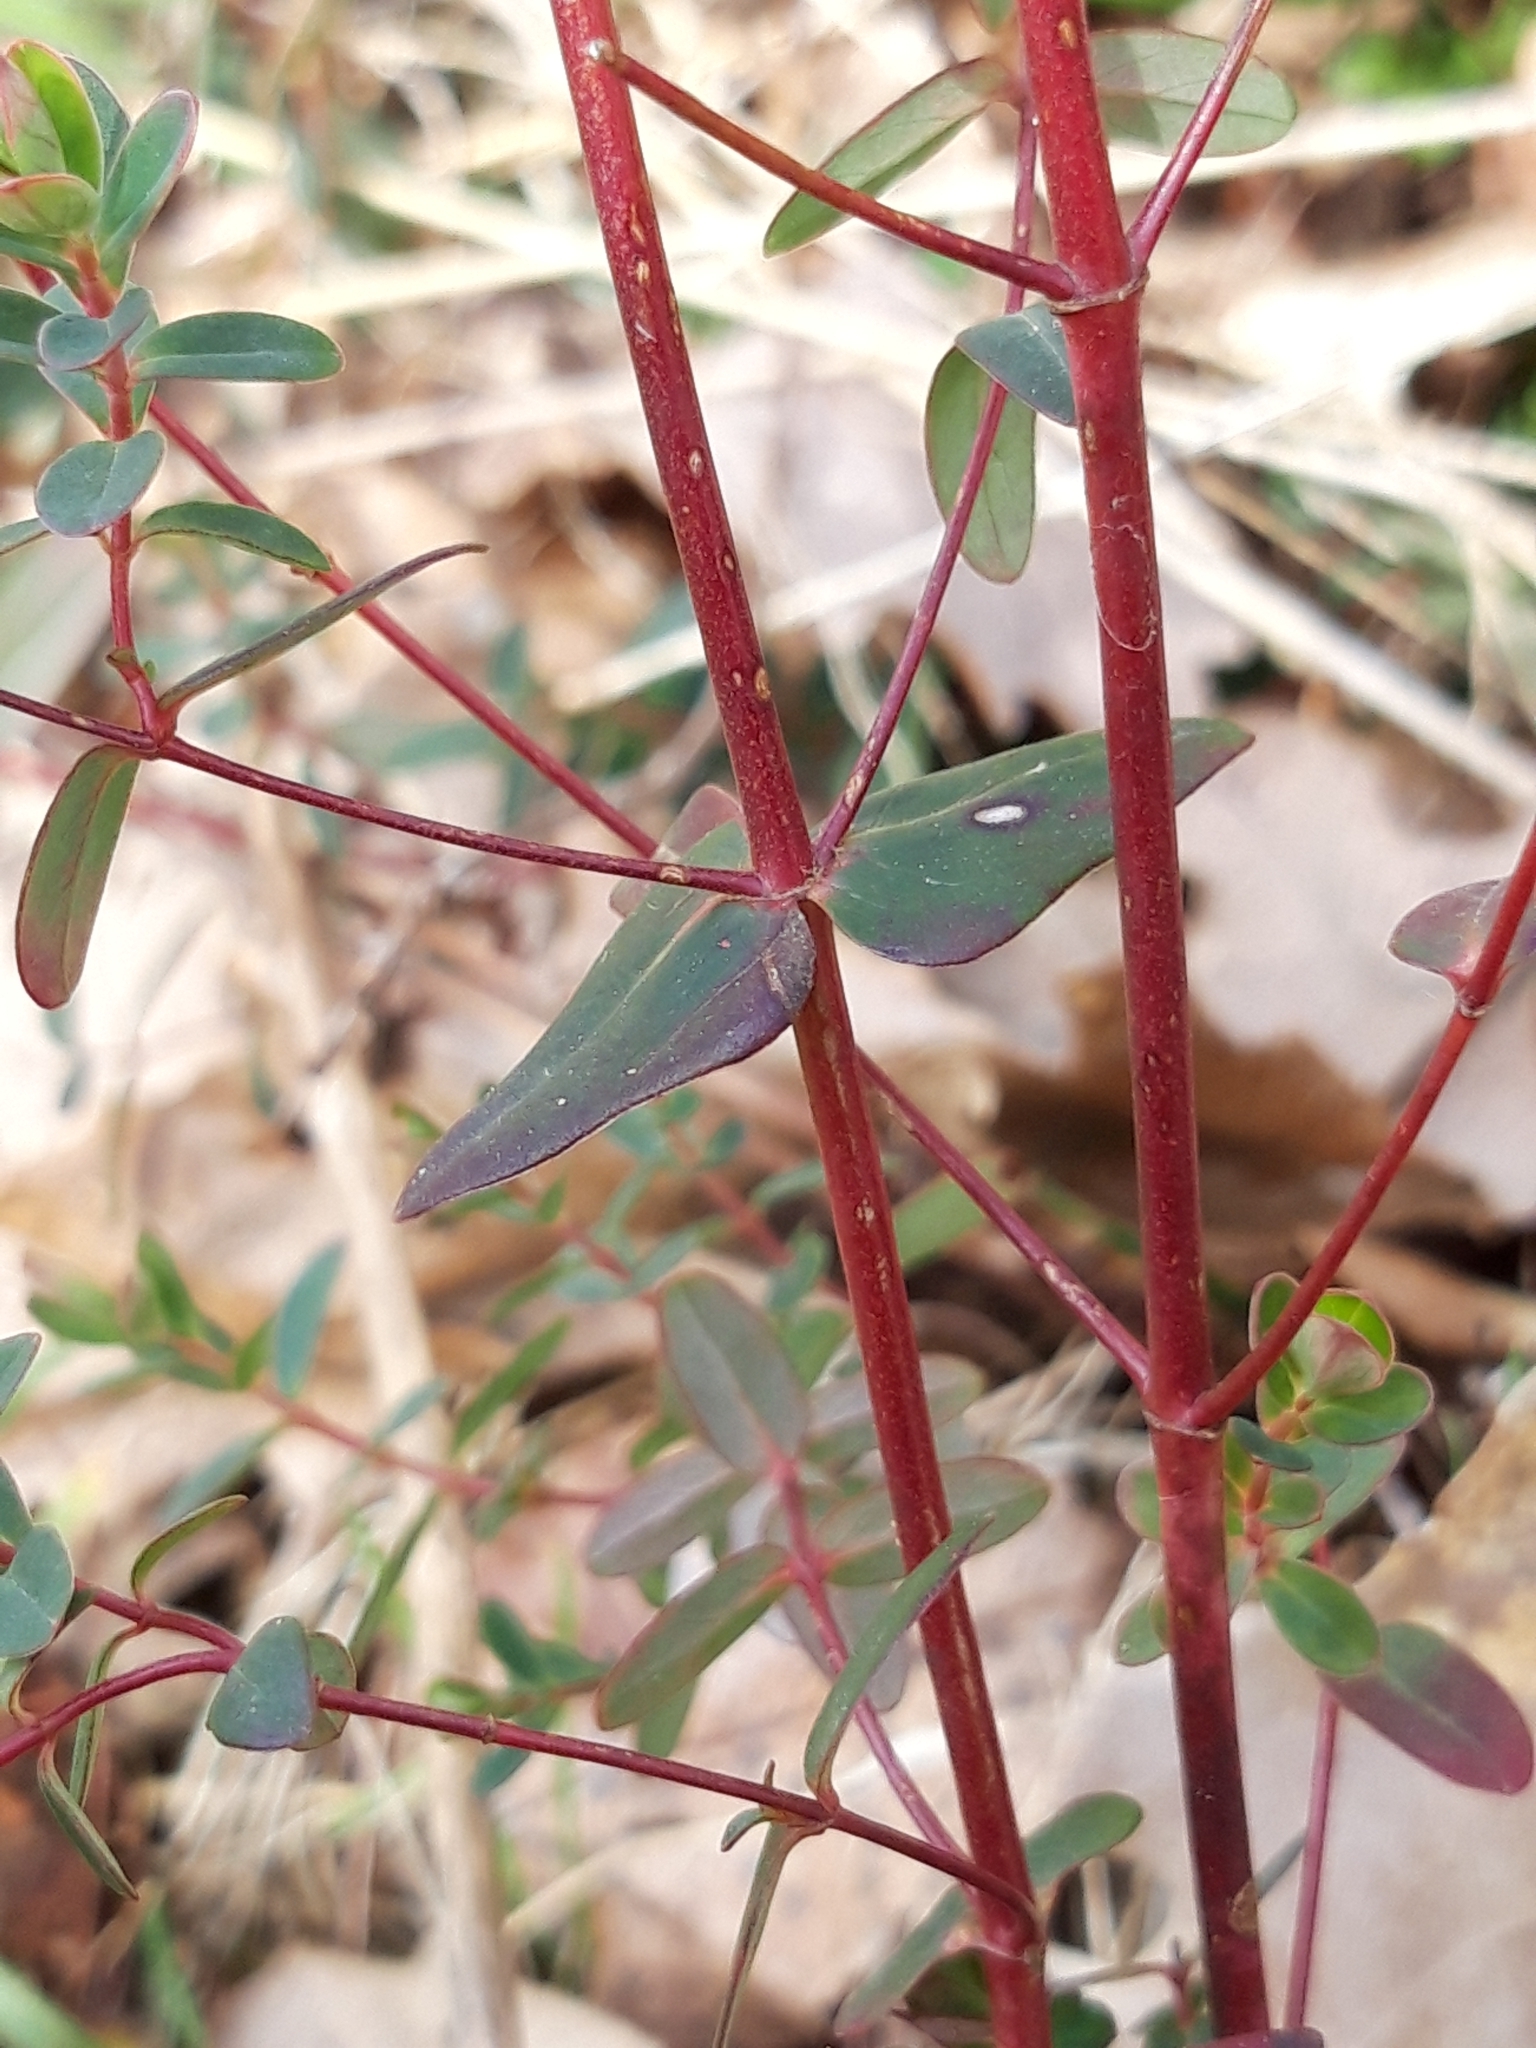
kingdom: Plantae
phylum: Tracheophyta
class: Magnoliopsida
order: Malpighiales
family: Hypericaceae
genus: Hypericum
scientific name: Hypericum pulchrum
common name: Slender st. john's-wort
